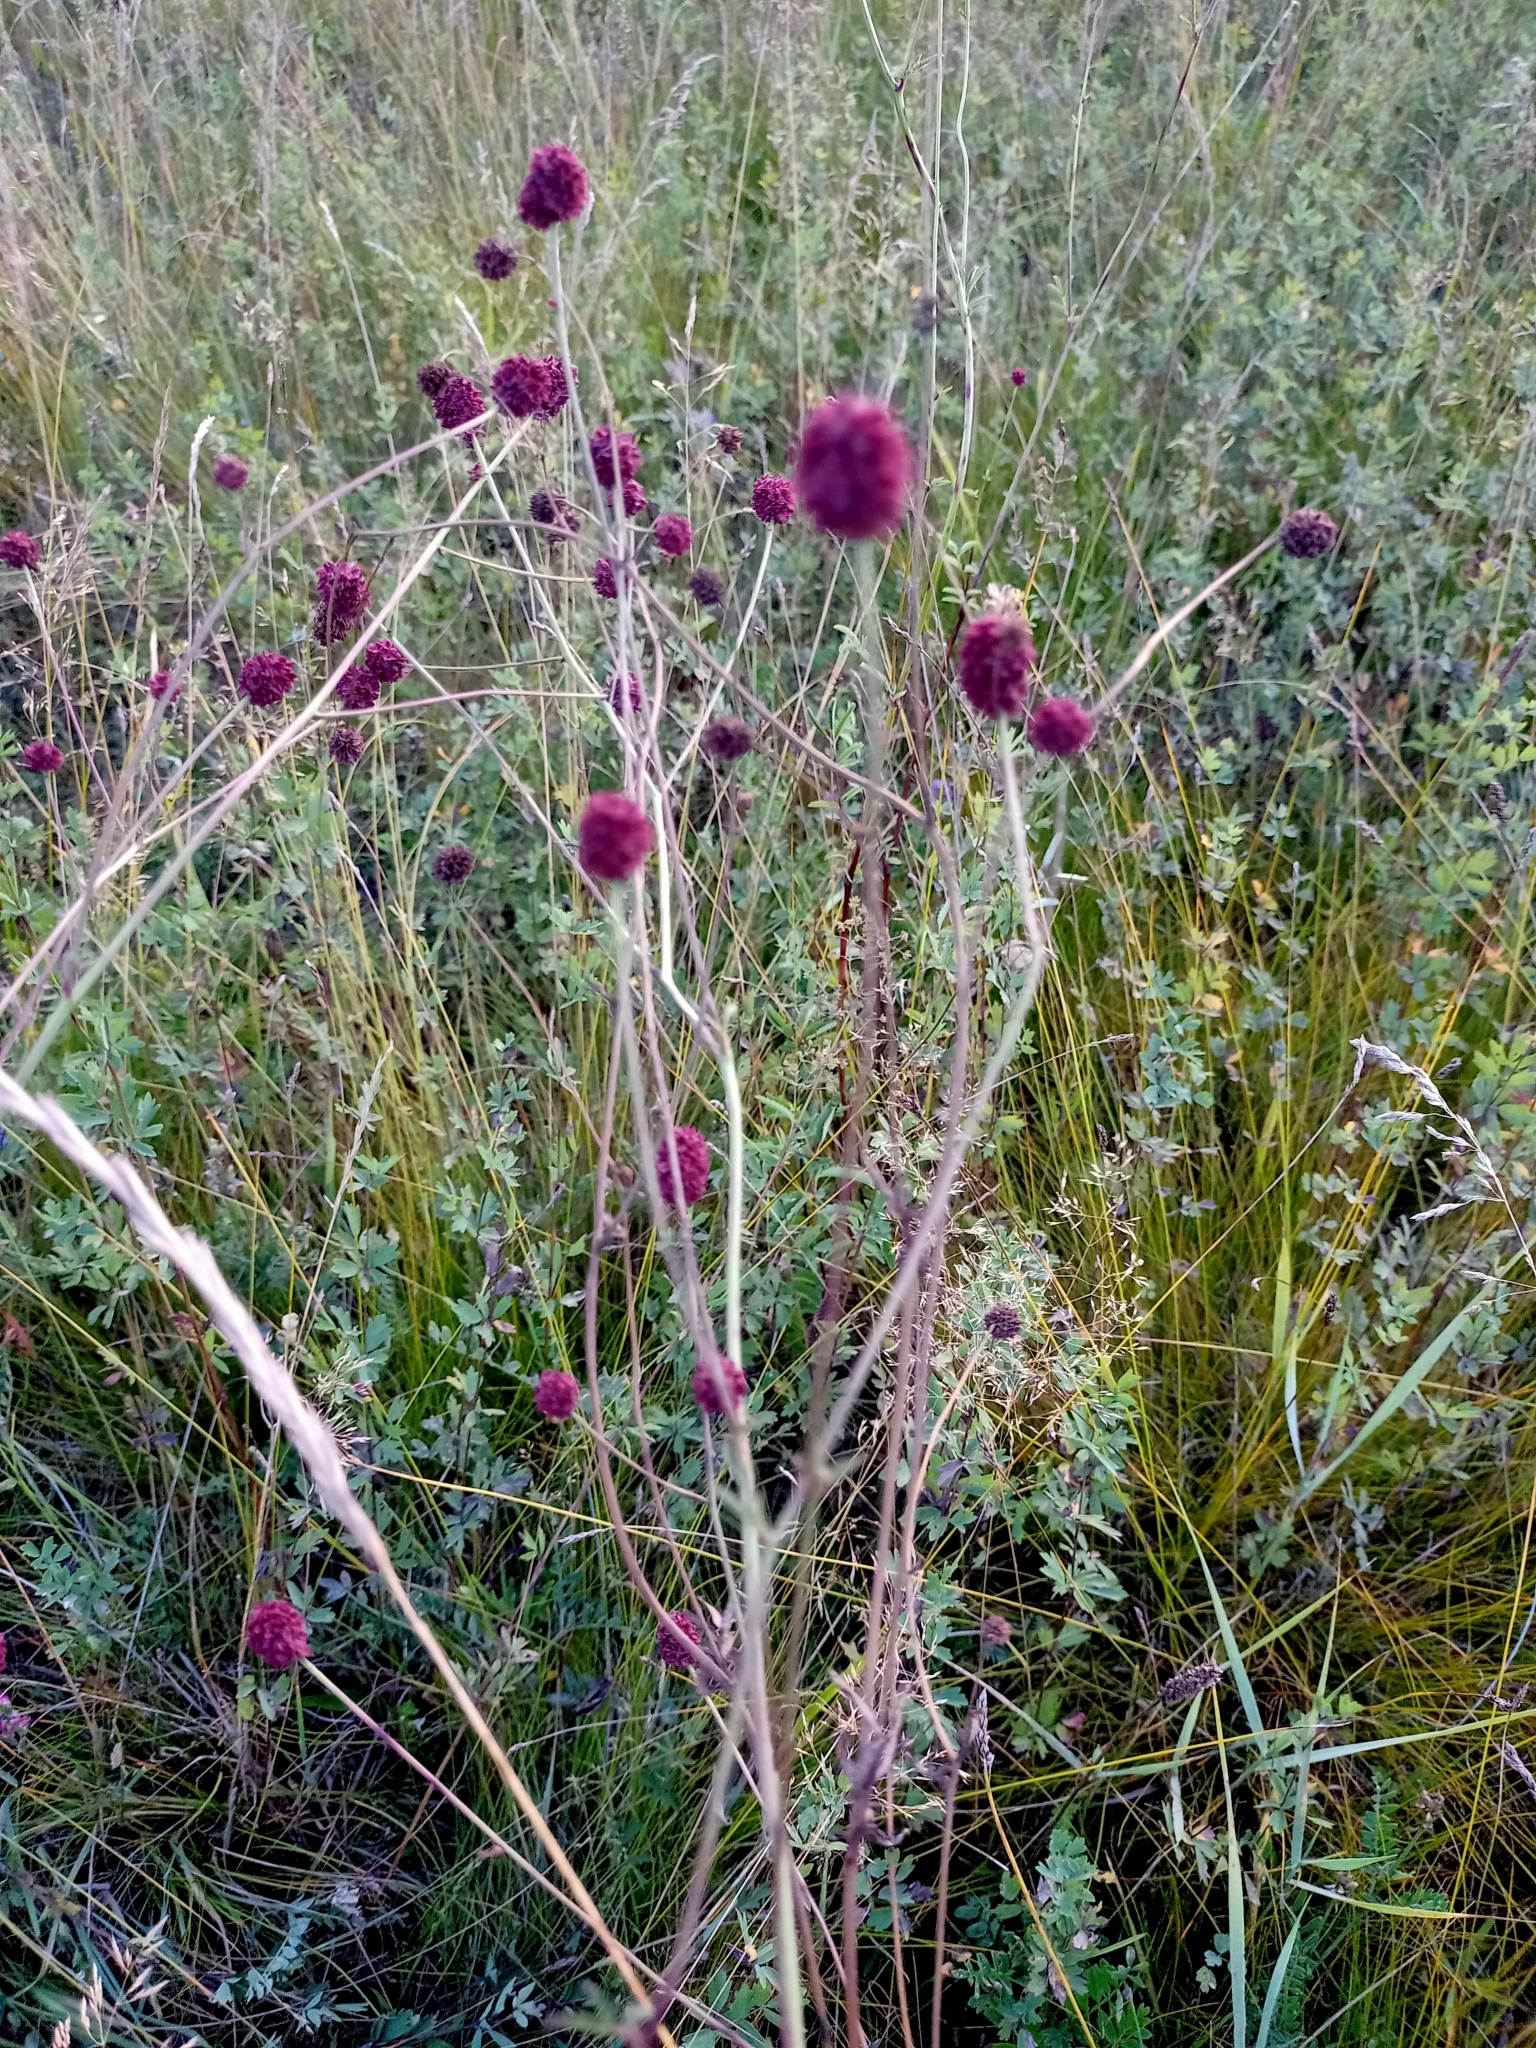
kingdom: Plantae
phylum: Tracheophyta
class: Magnoliopsida
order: Rosales
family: Rosaceae
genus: Sanguisorba
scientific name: Sanguisorba officinalis
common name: Great burnet
